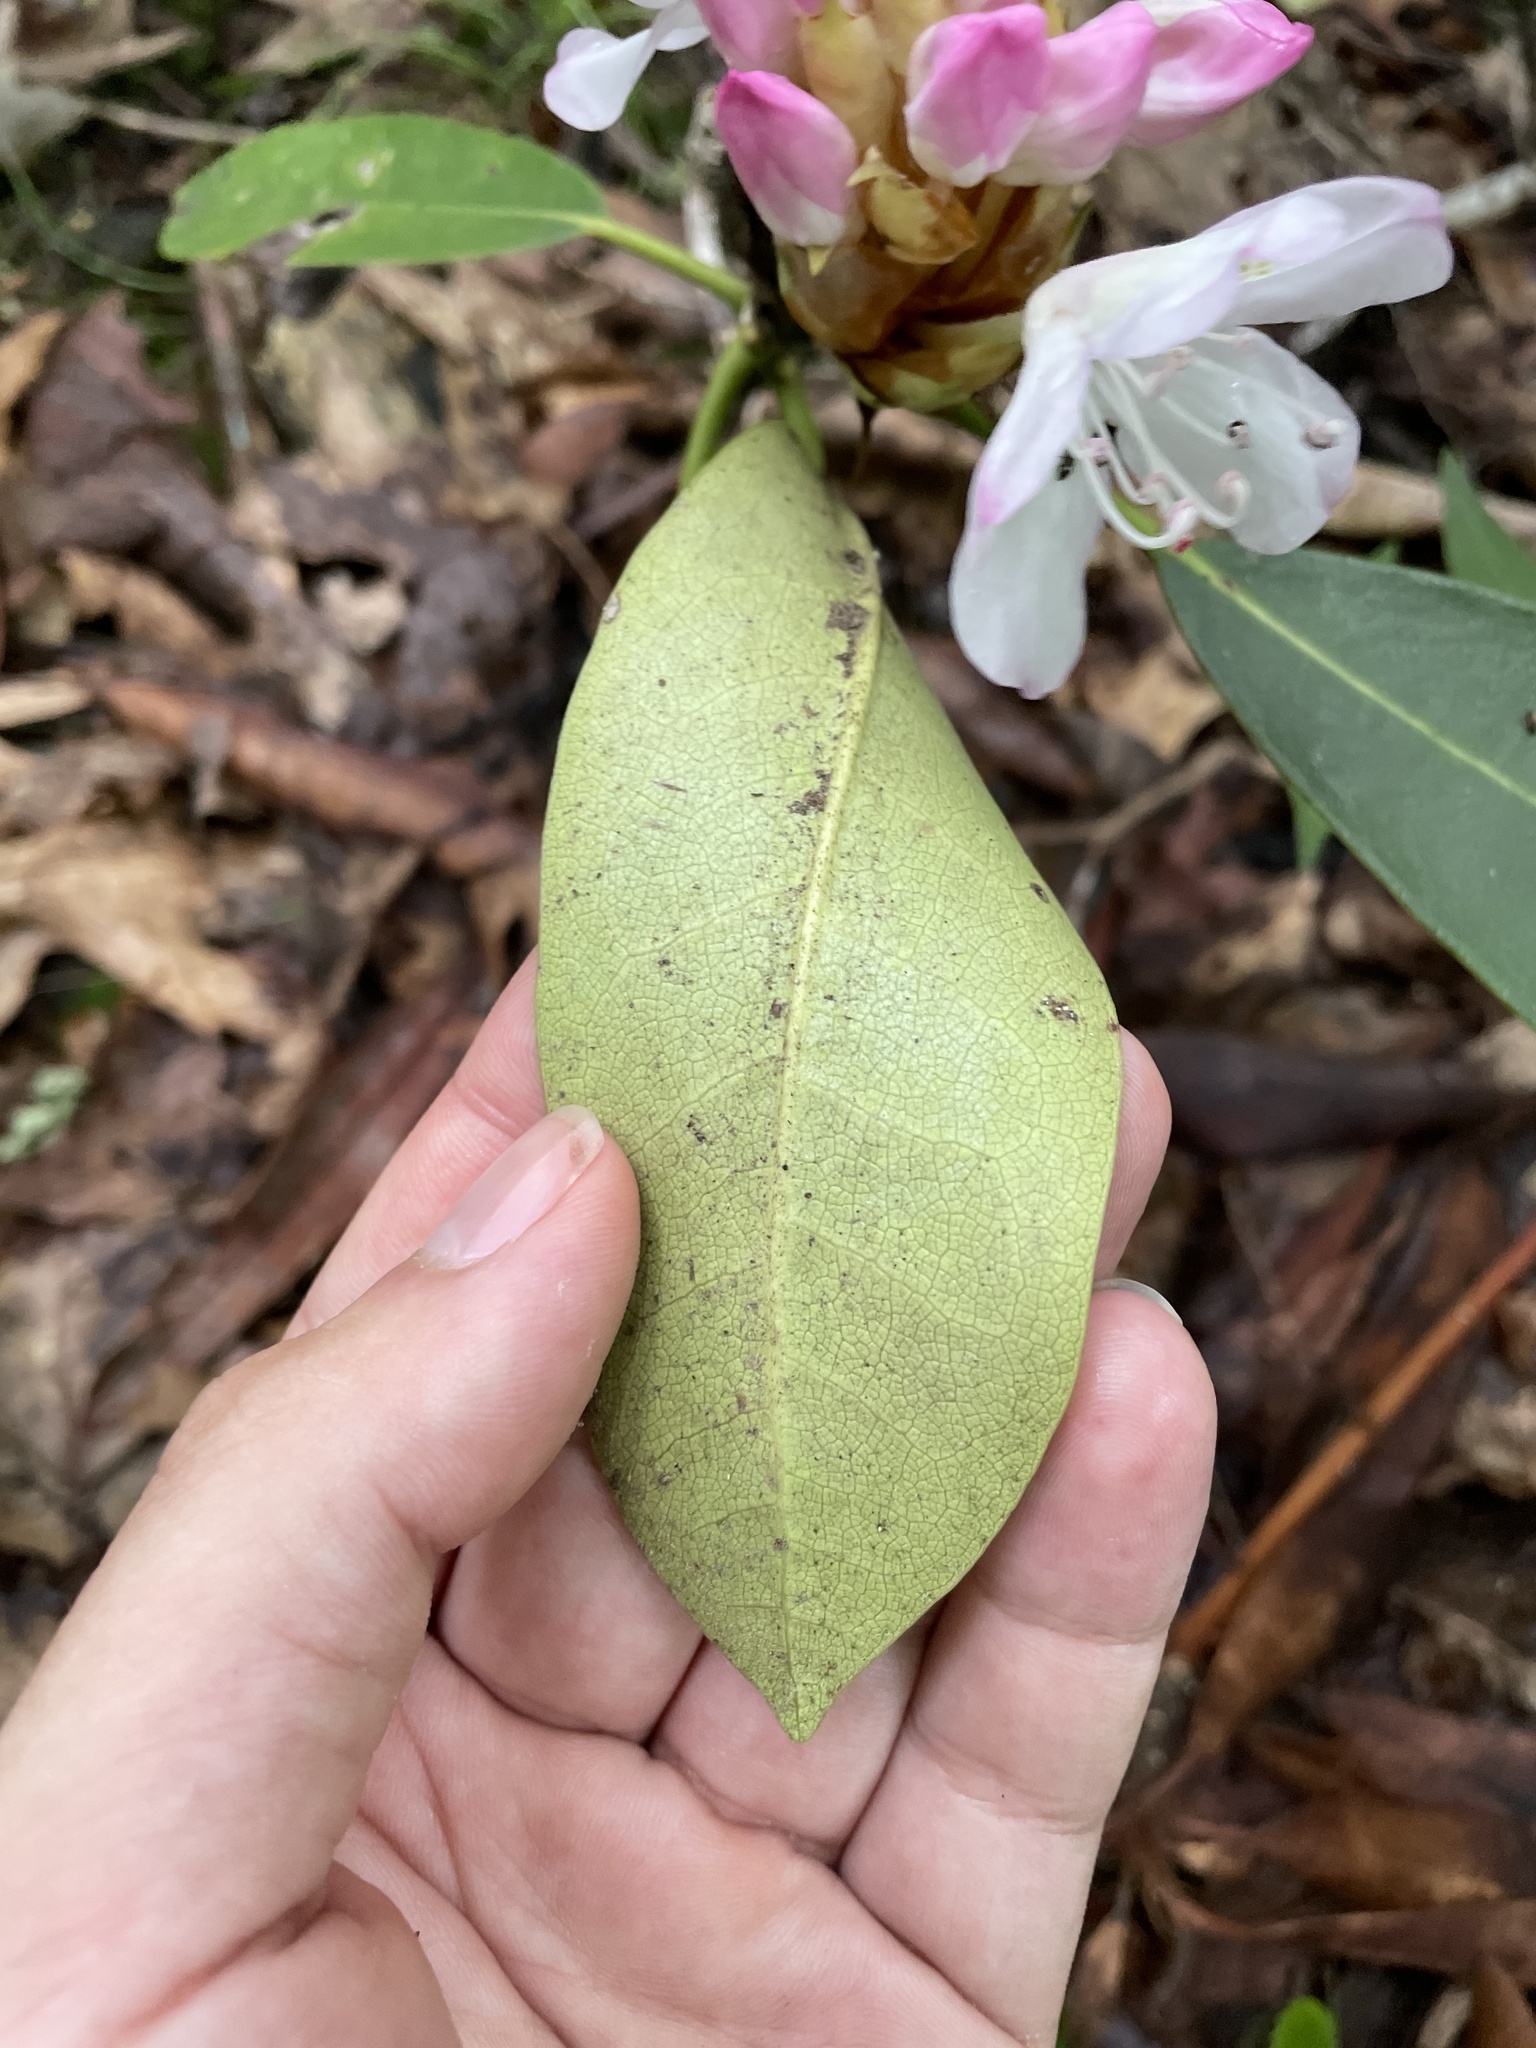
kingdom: Plantae
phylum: Tracheophyta
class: Magnoliopsida
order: Ericales
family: Ericaceae
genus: Rhododendron
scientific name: Rhododendron maximum
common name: Great rhododendron
